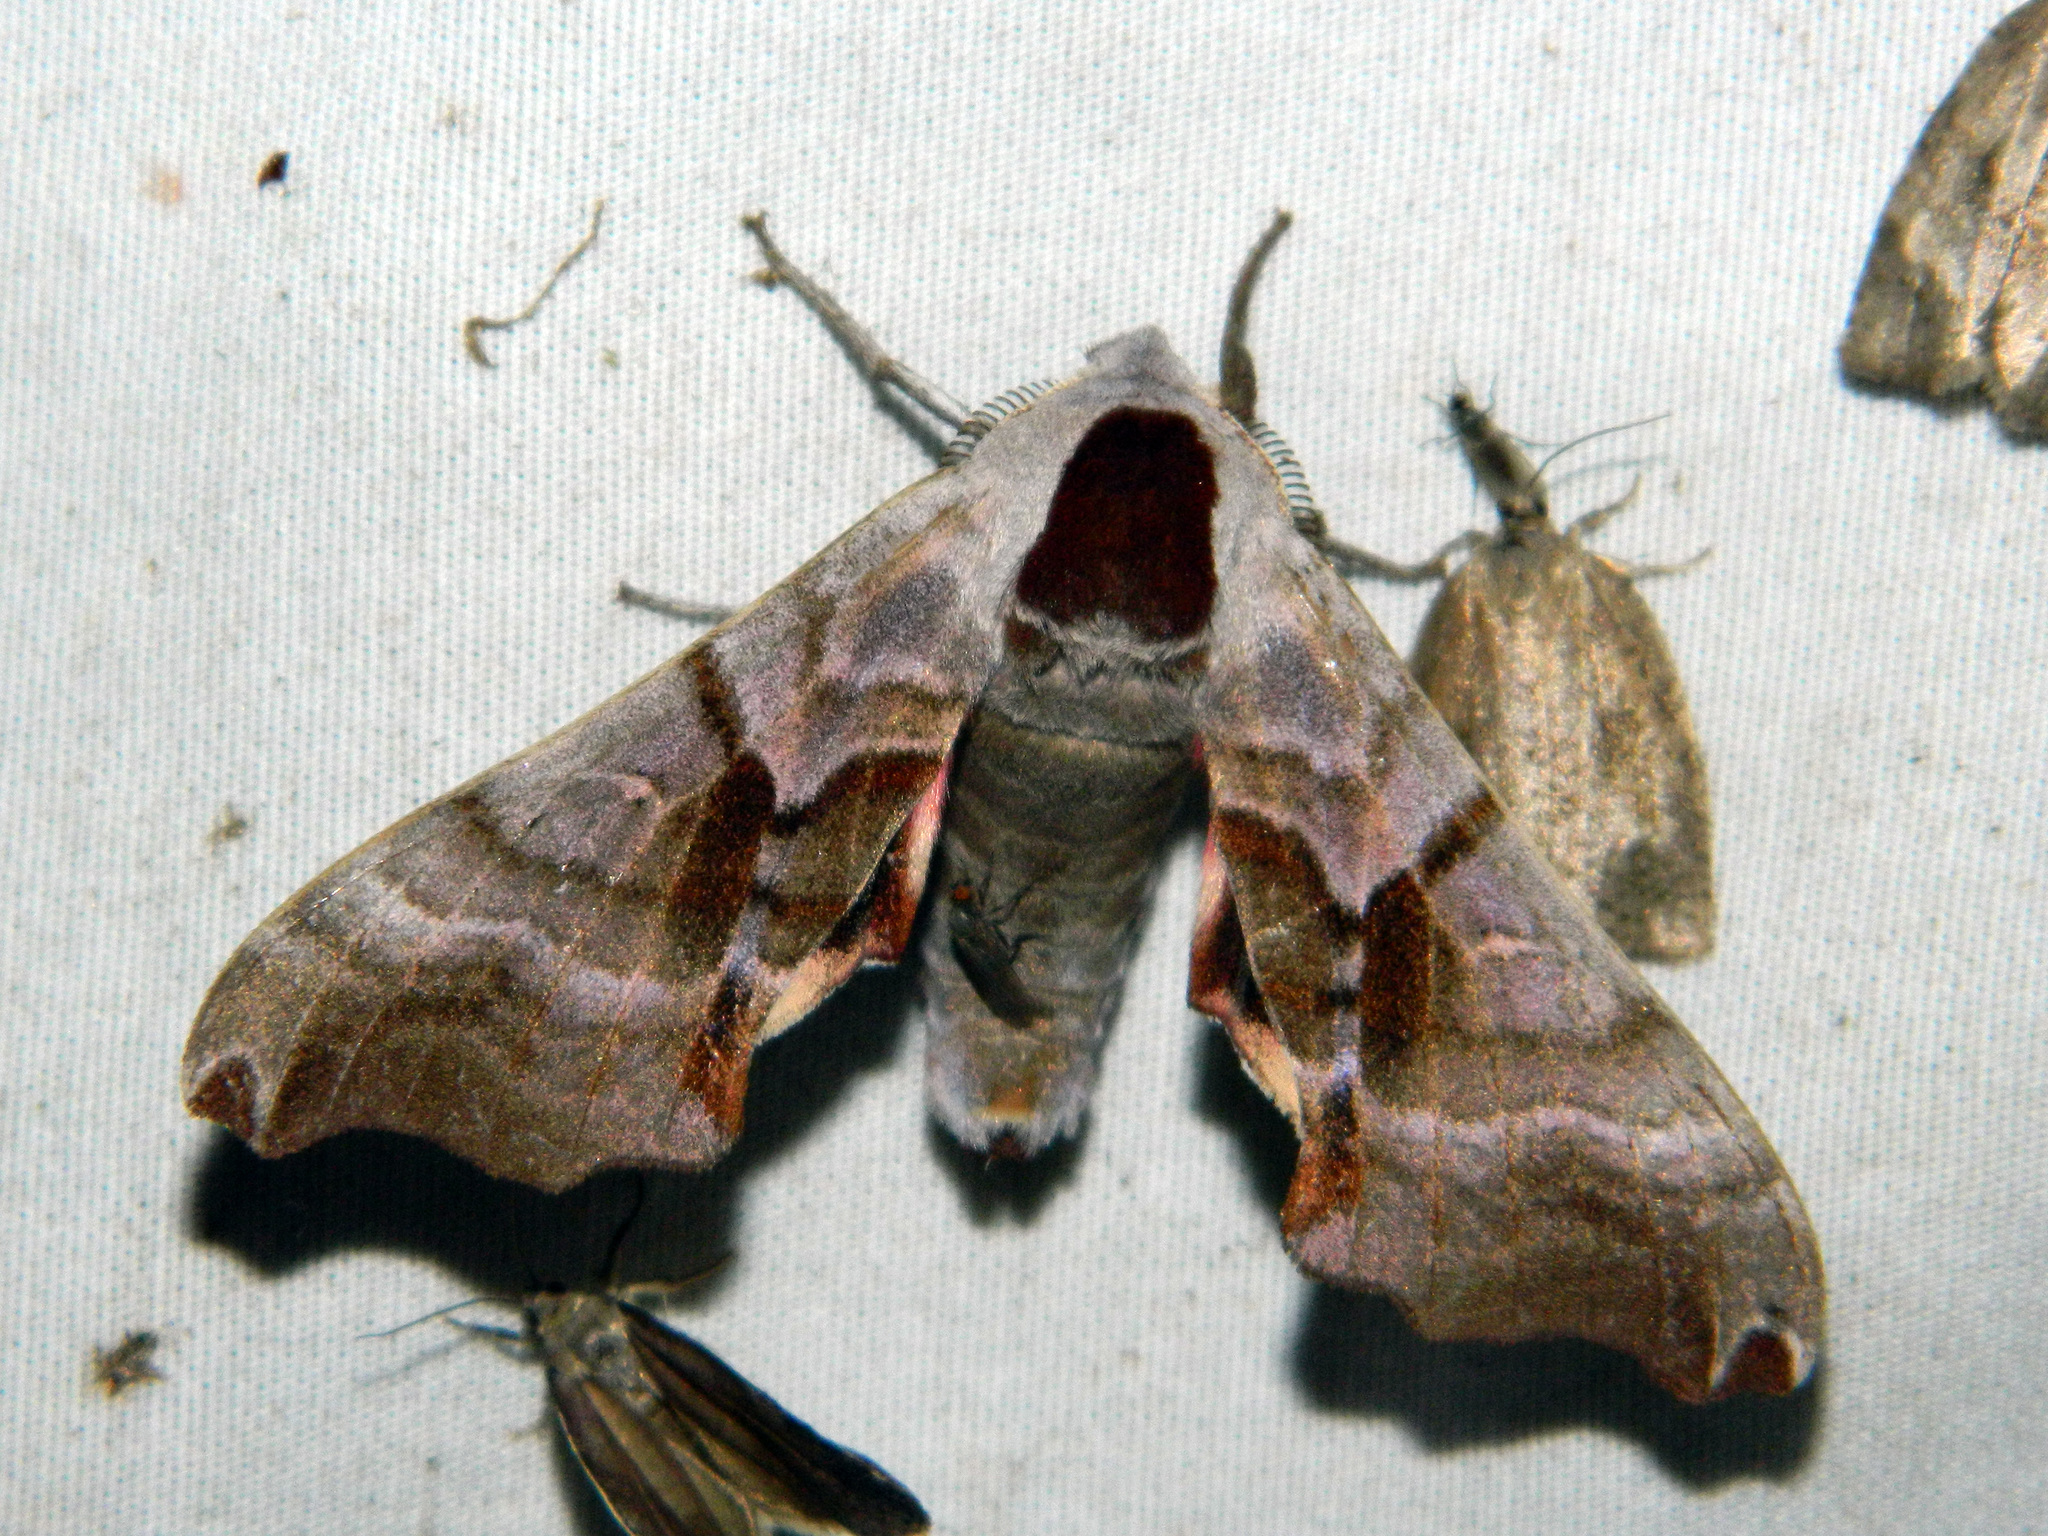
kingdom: Animalia
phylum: Arthropoda
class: Insecta
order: Lepidoptera
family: Sphingidae
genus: Smerinthus
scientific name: Smerinthus jamaicensis
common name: Twin spotted sphinx
